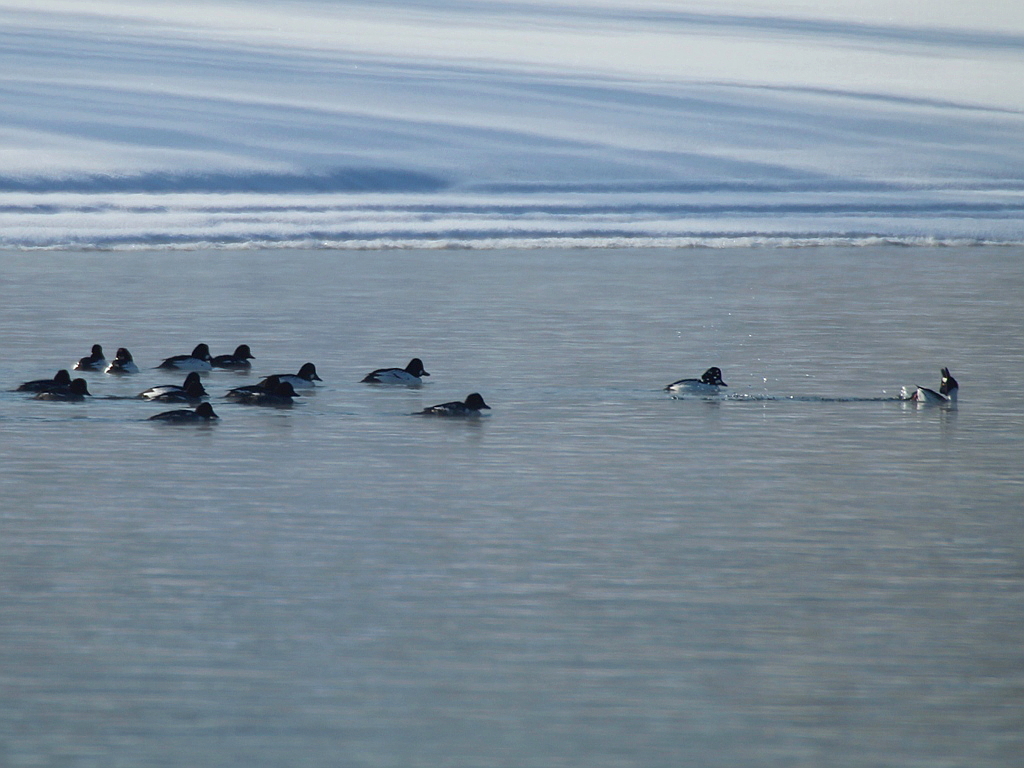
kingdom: Animalia
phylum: Chordata
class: Aves
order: Anseriformes
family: Anatidae
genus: Bucephala
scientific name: Bucephala clangula
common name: Common goldeneye
